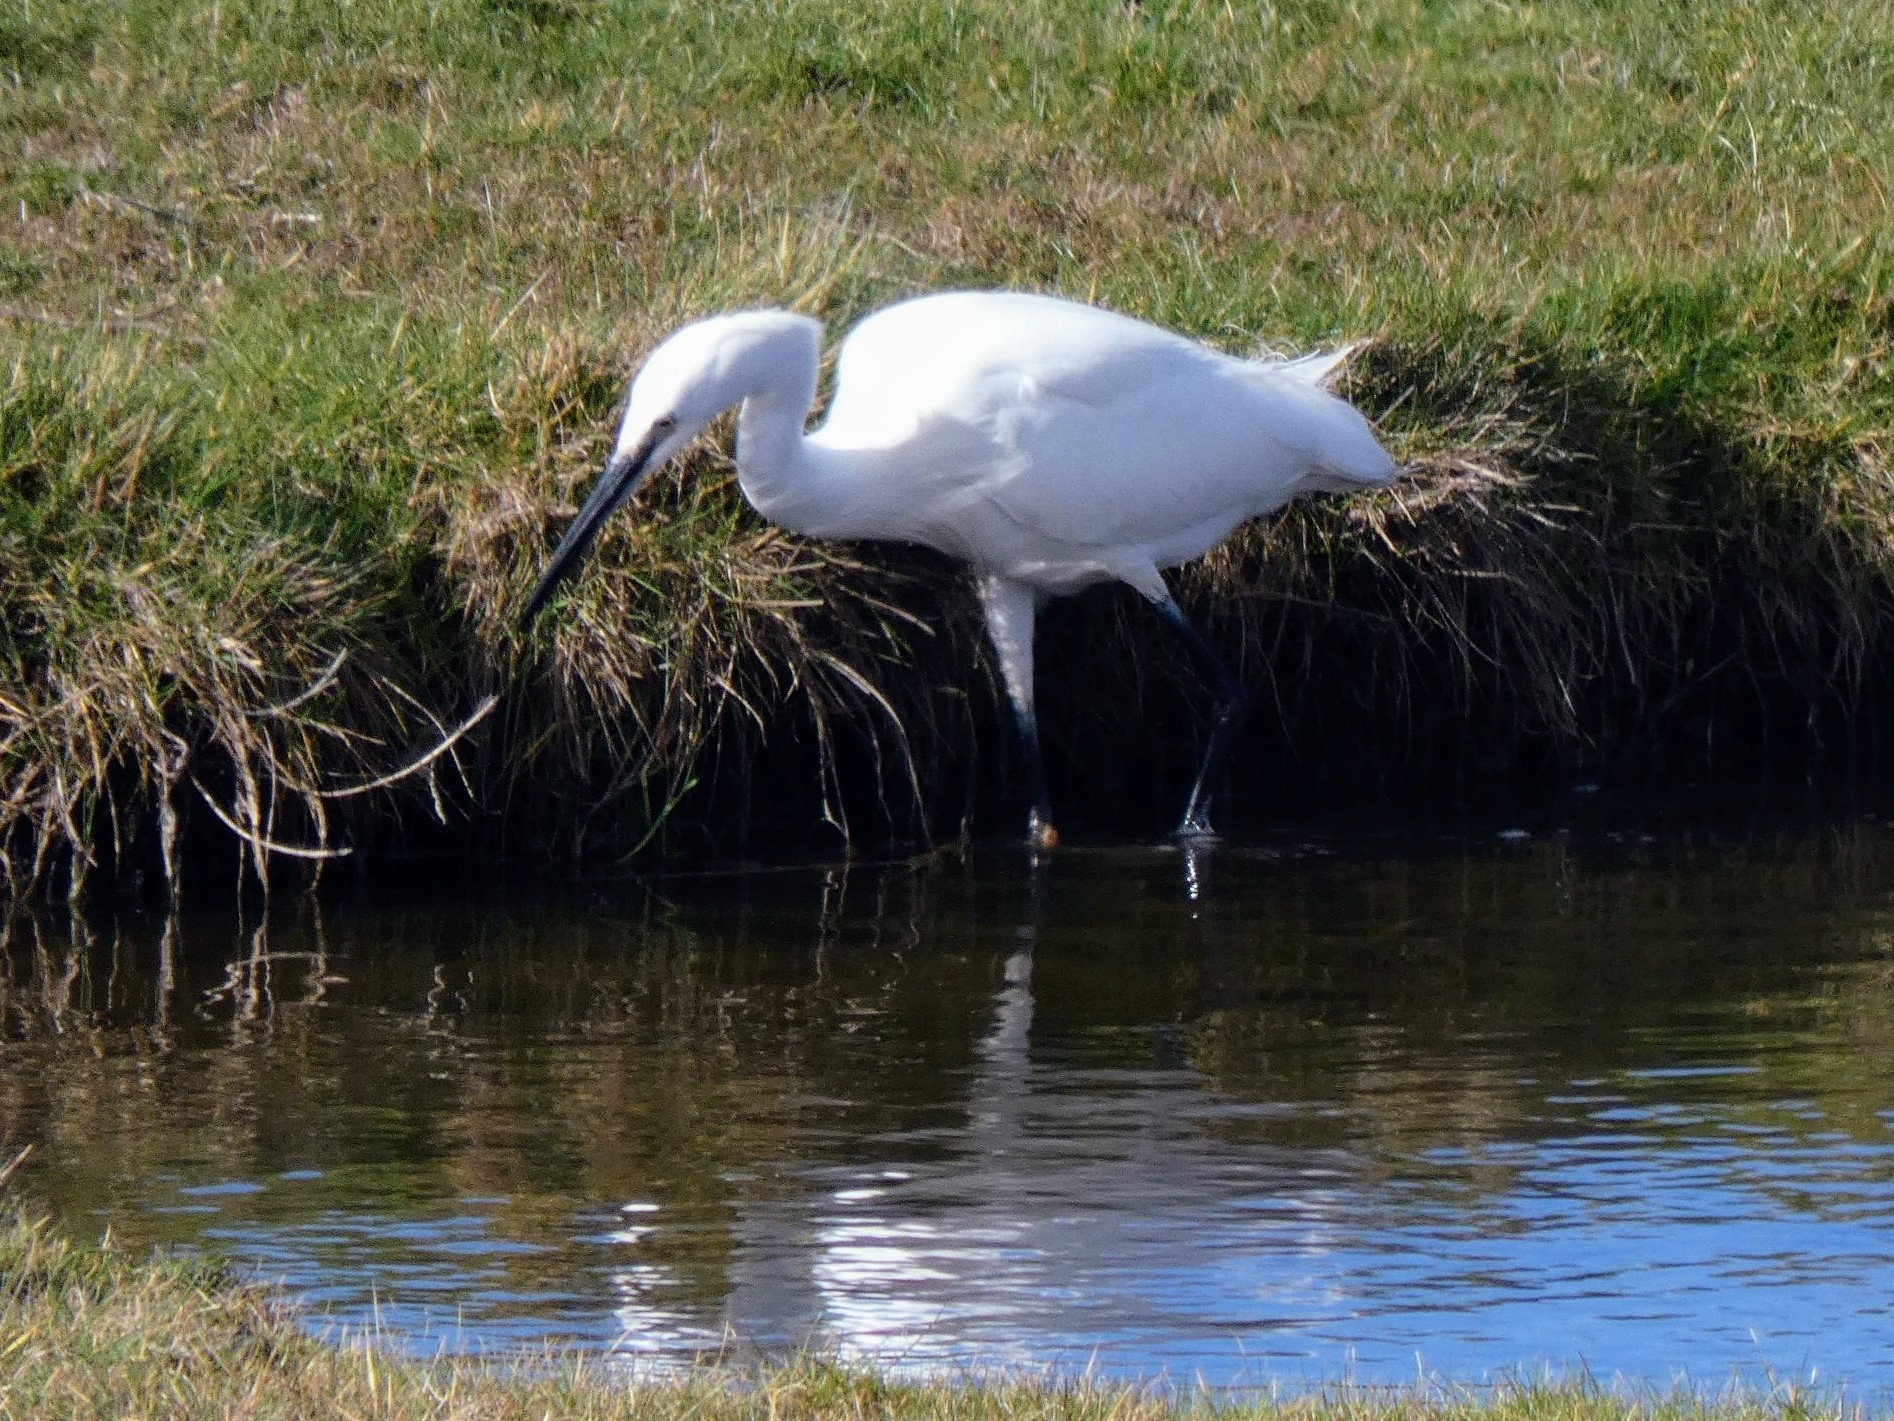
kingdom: Animalia
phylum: Chordata
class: Aves
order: Pelecaniformes
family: Ardeidae
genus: Egretta
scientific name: Egretta garzetta
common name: Little egret
